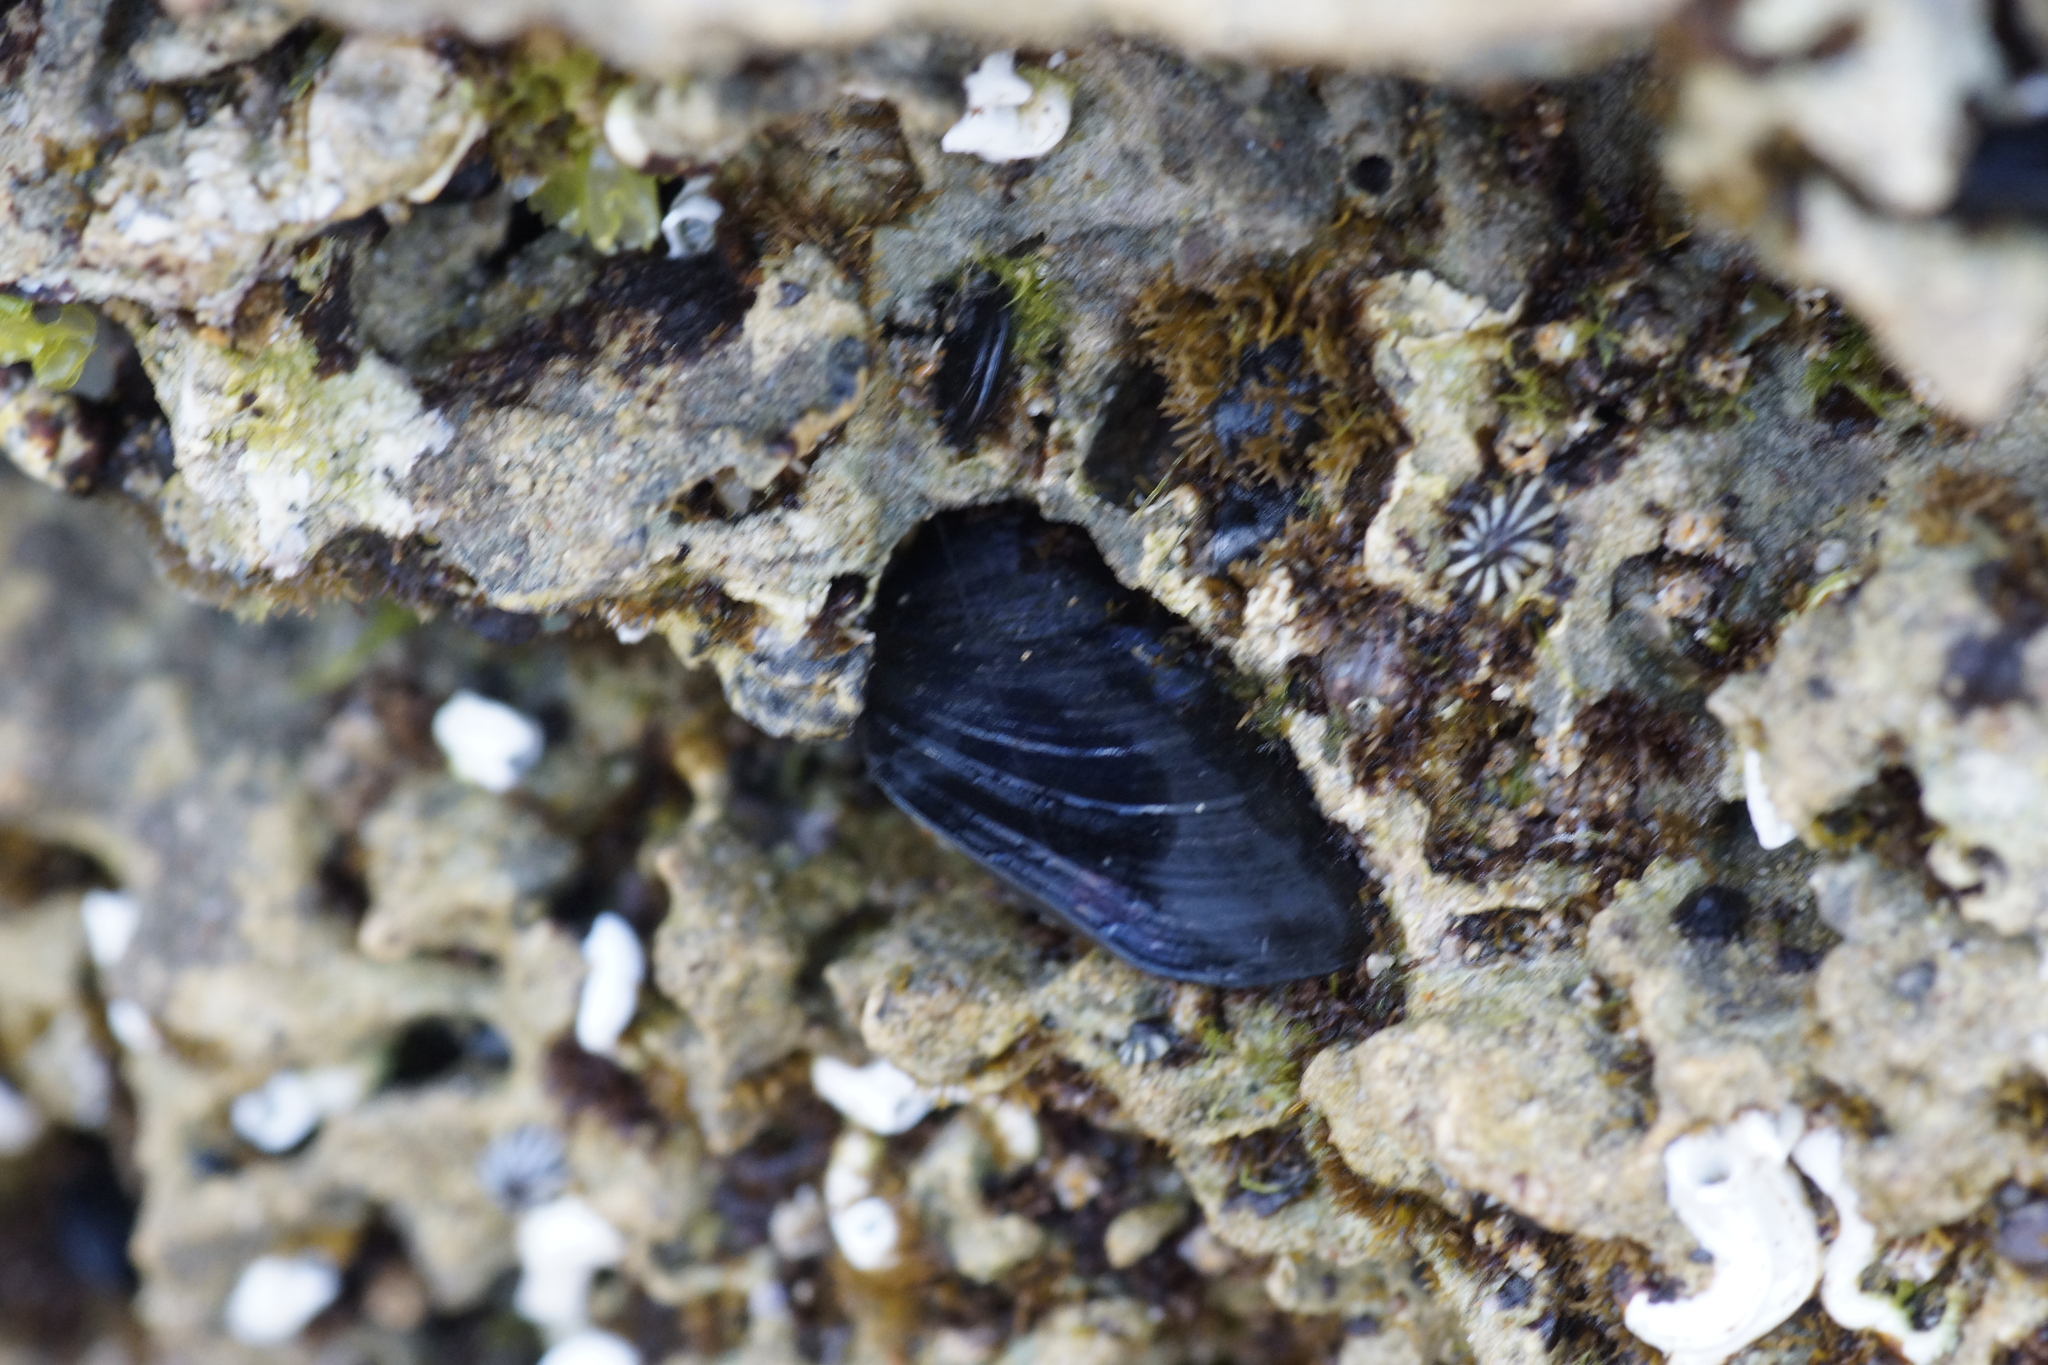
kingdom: Animalia
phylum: Mollusca
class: Bivalvia
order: Mytilida
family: Mytilidae
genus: Xenostrobus
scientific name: Xenostrobus pulex
